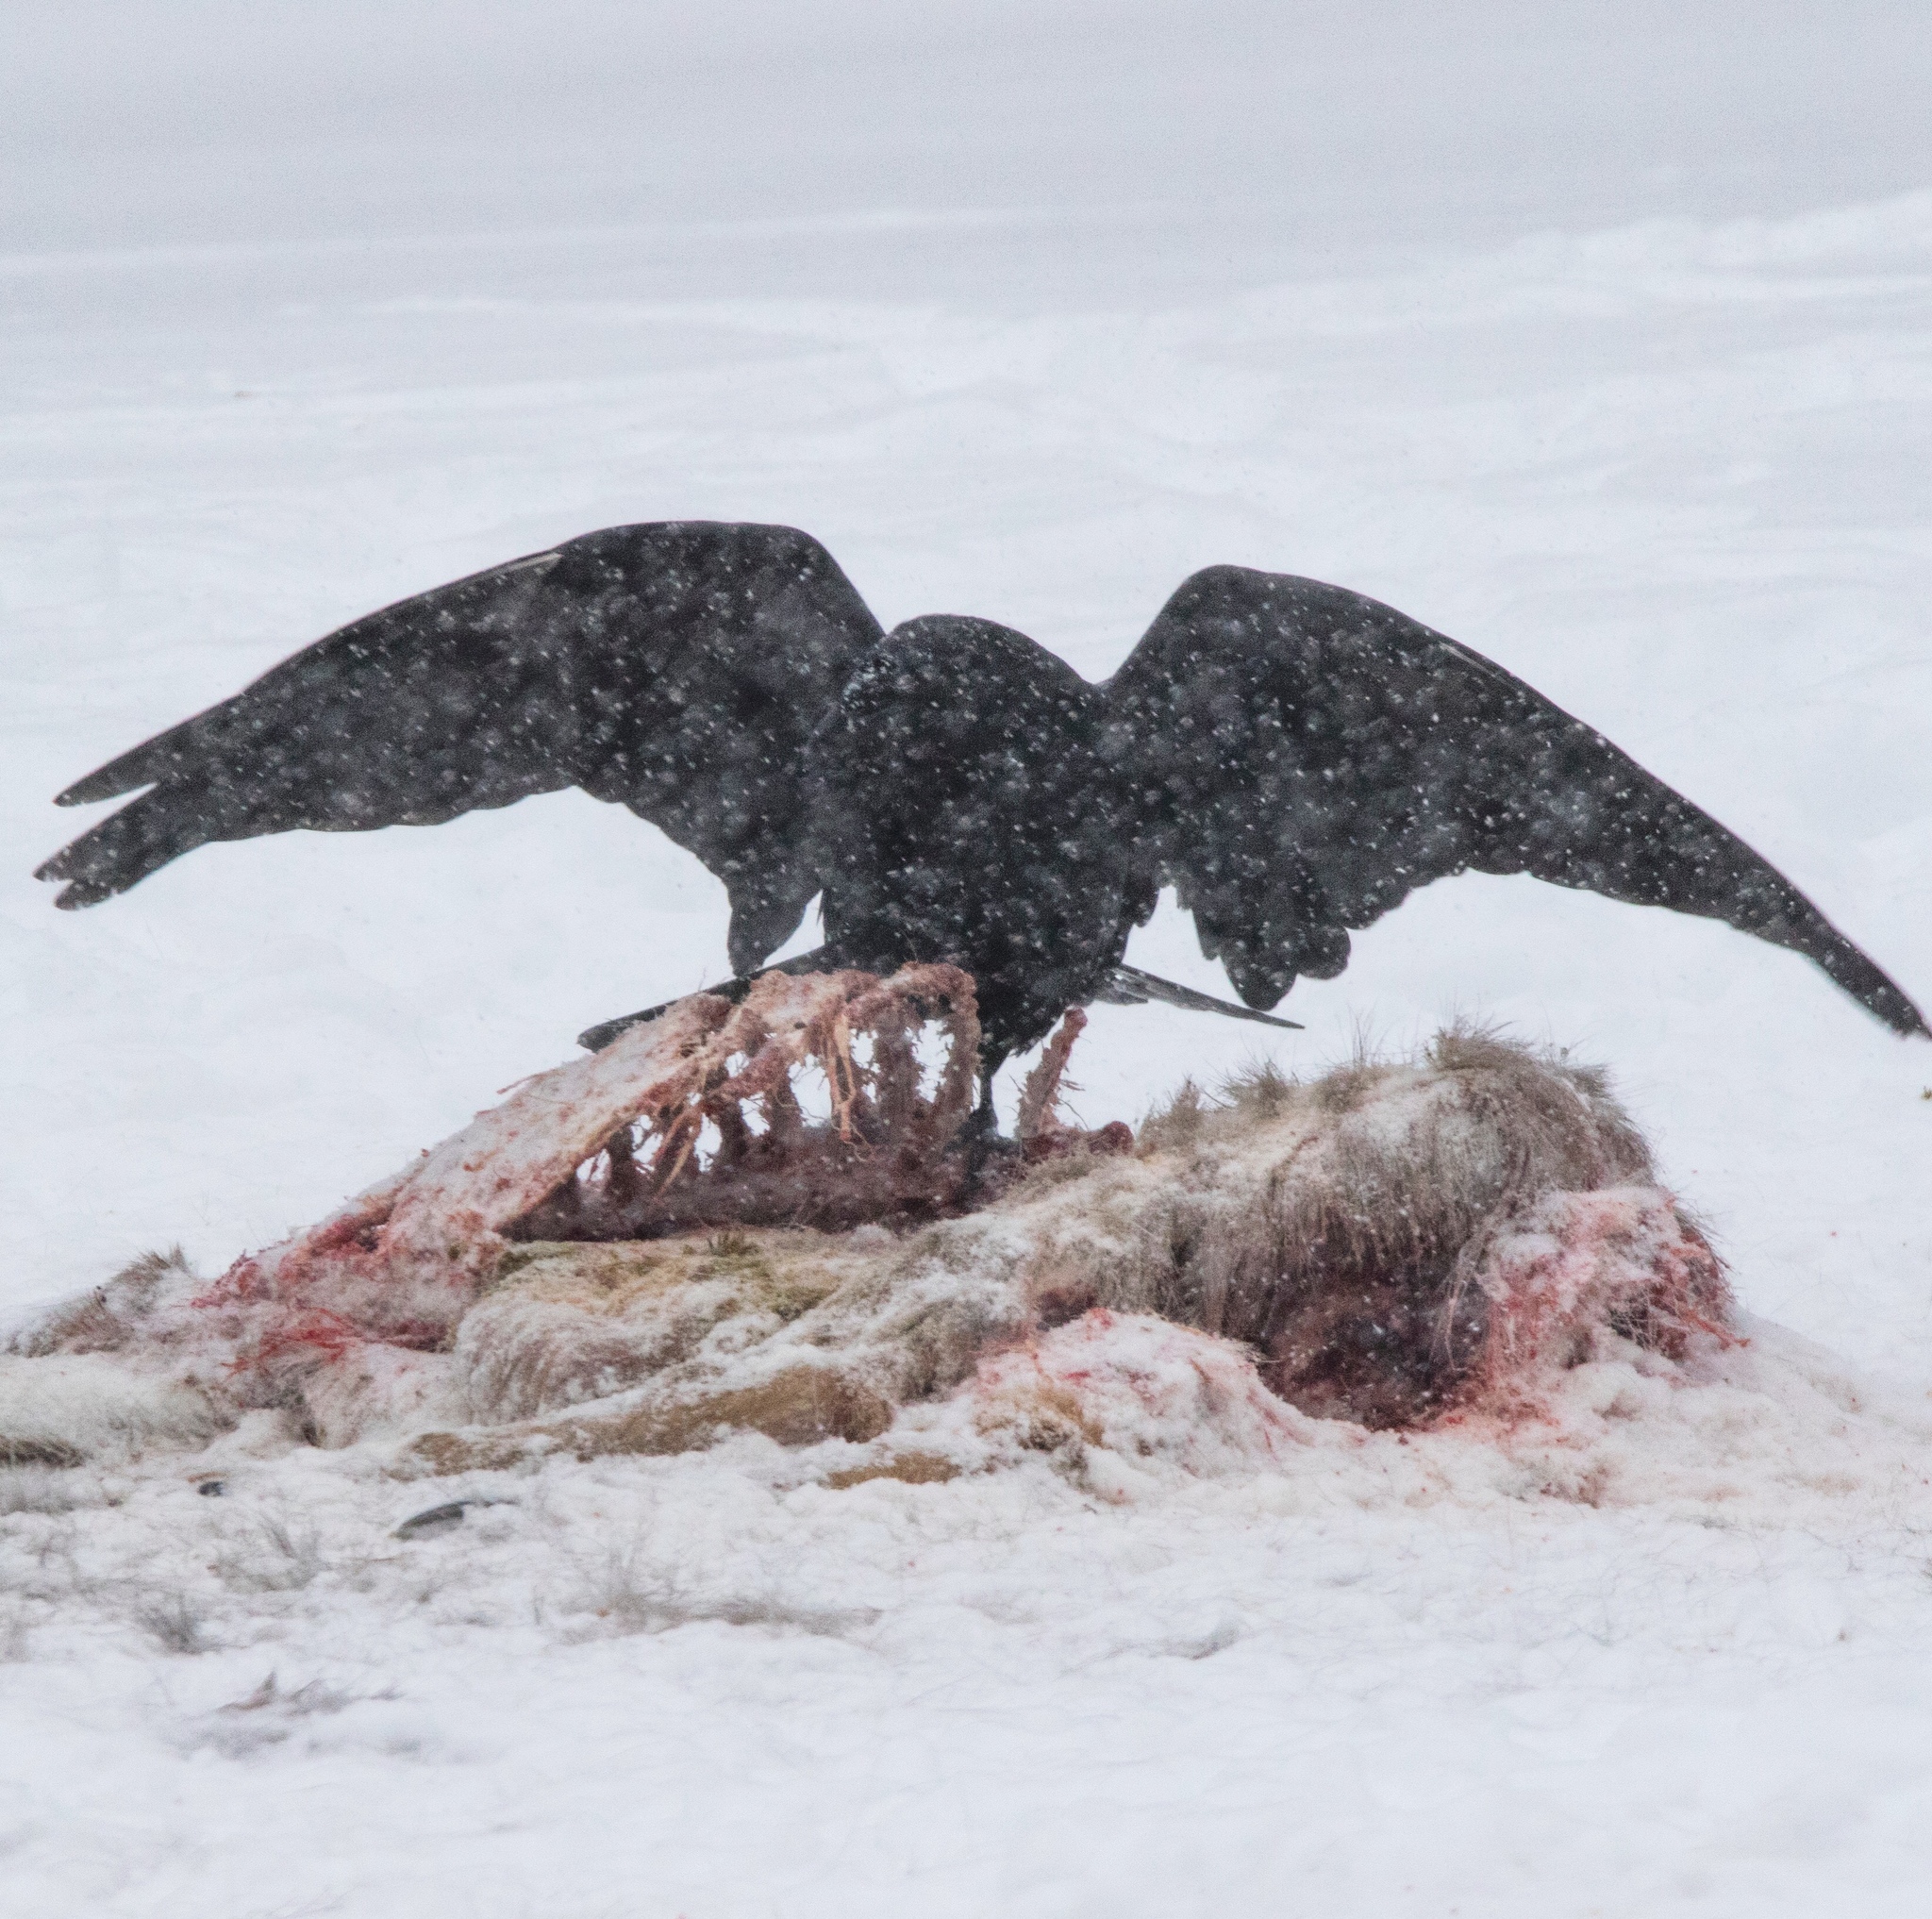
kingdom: Animalia
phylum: Chordata
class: Mammalia
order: Artiodactyla
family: Cervidae
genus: Odocoileus
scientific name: Odocoileus virginianus
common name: White-tailed deer
